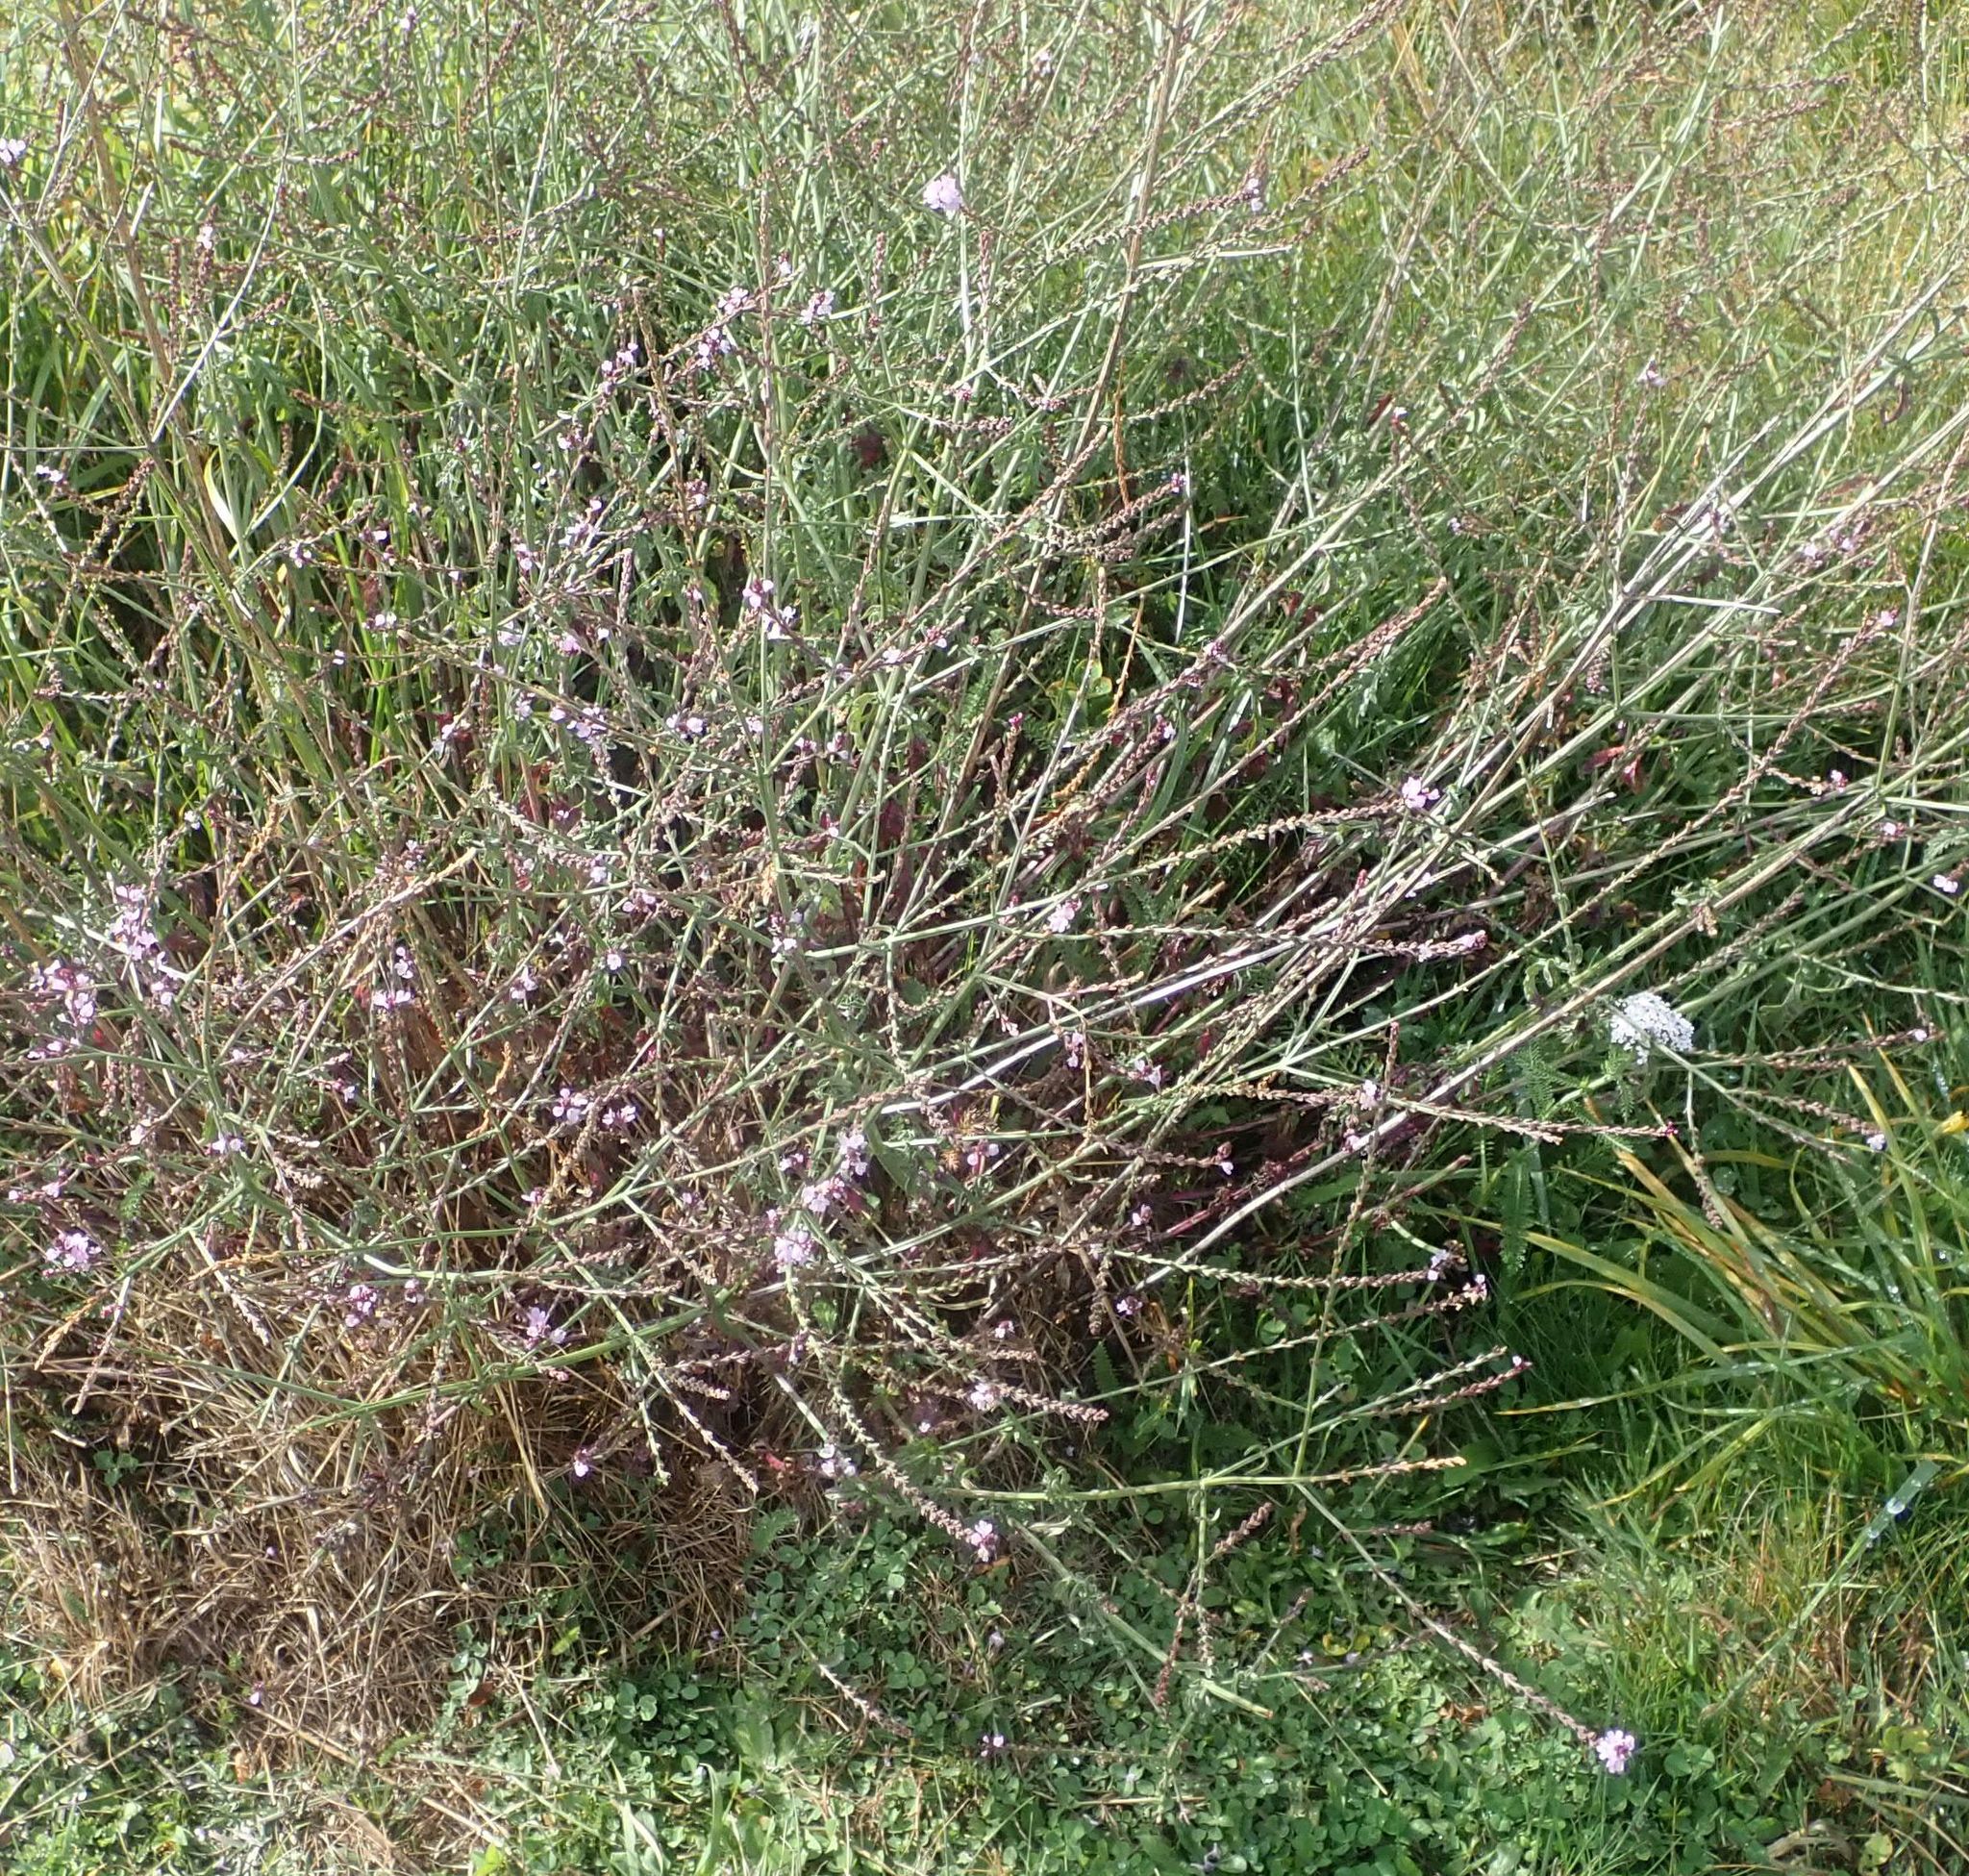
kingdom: Plantae
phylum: Tracheophyta
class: Magnoliopsida
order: Lamiales
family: Verbenaceae
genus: Verbena
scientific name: Verbena officinalis
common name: Vervain
